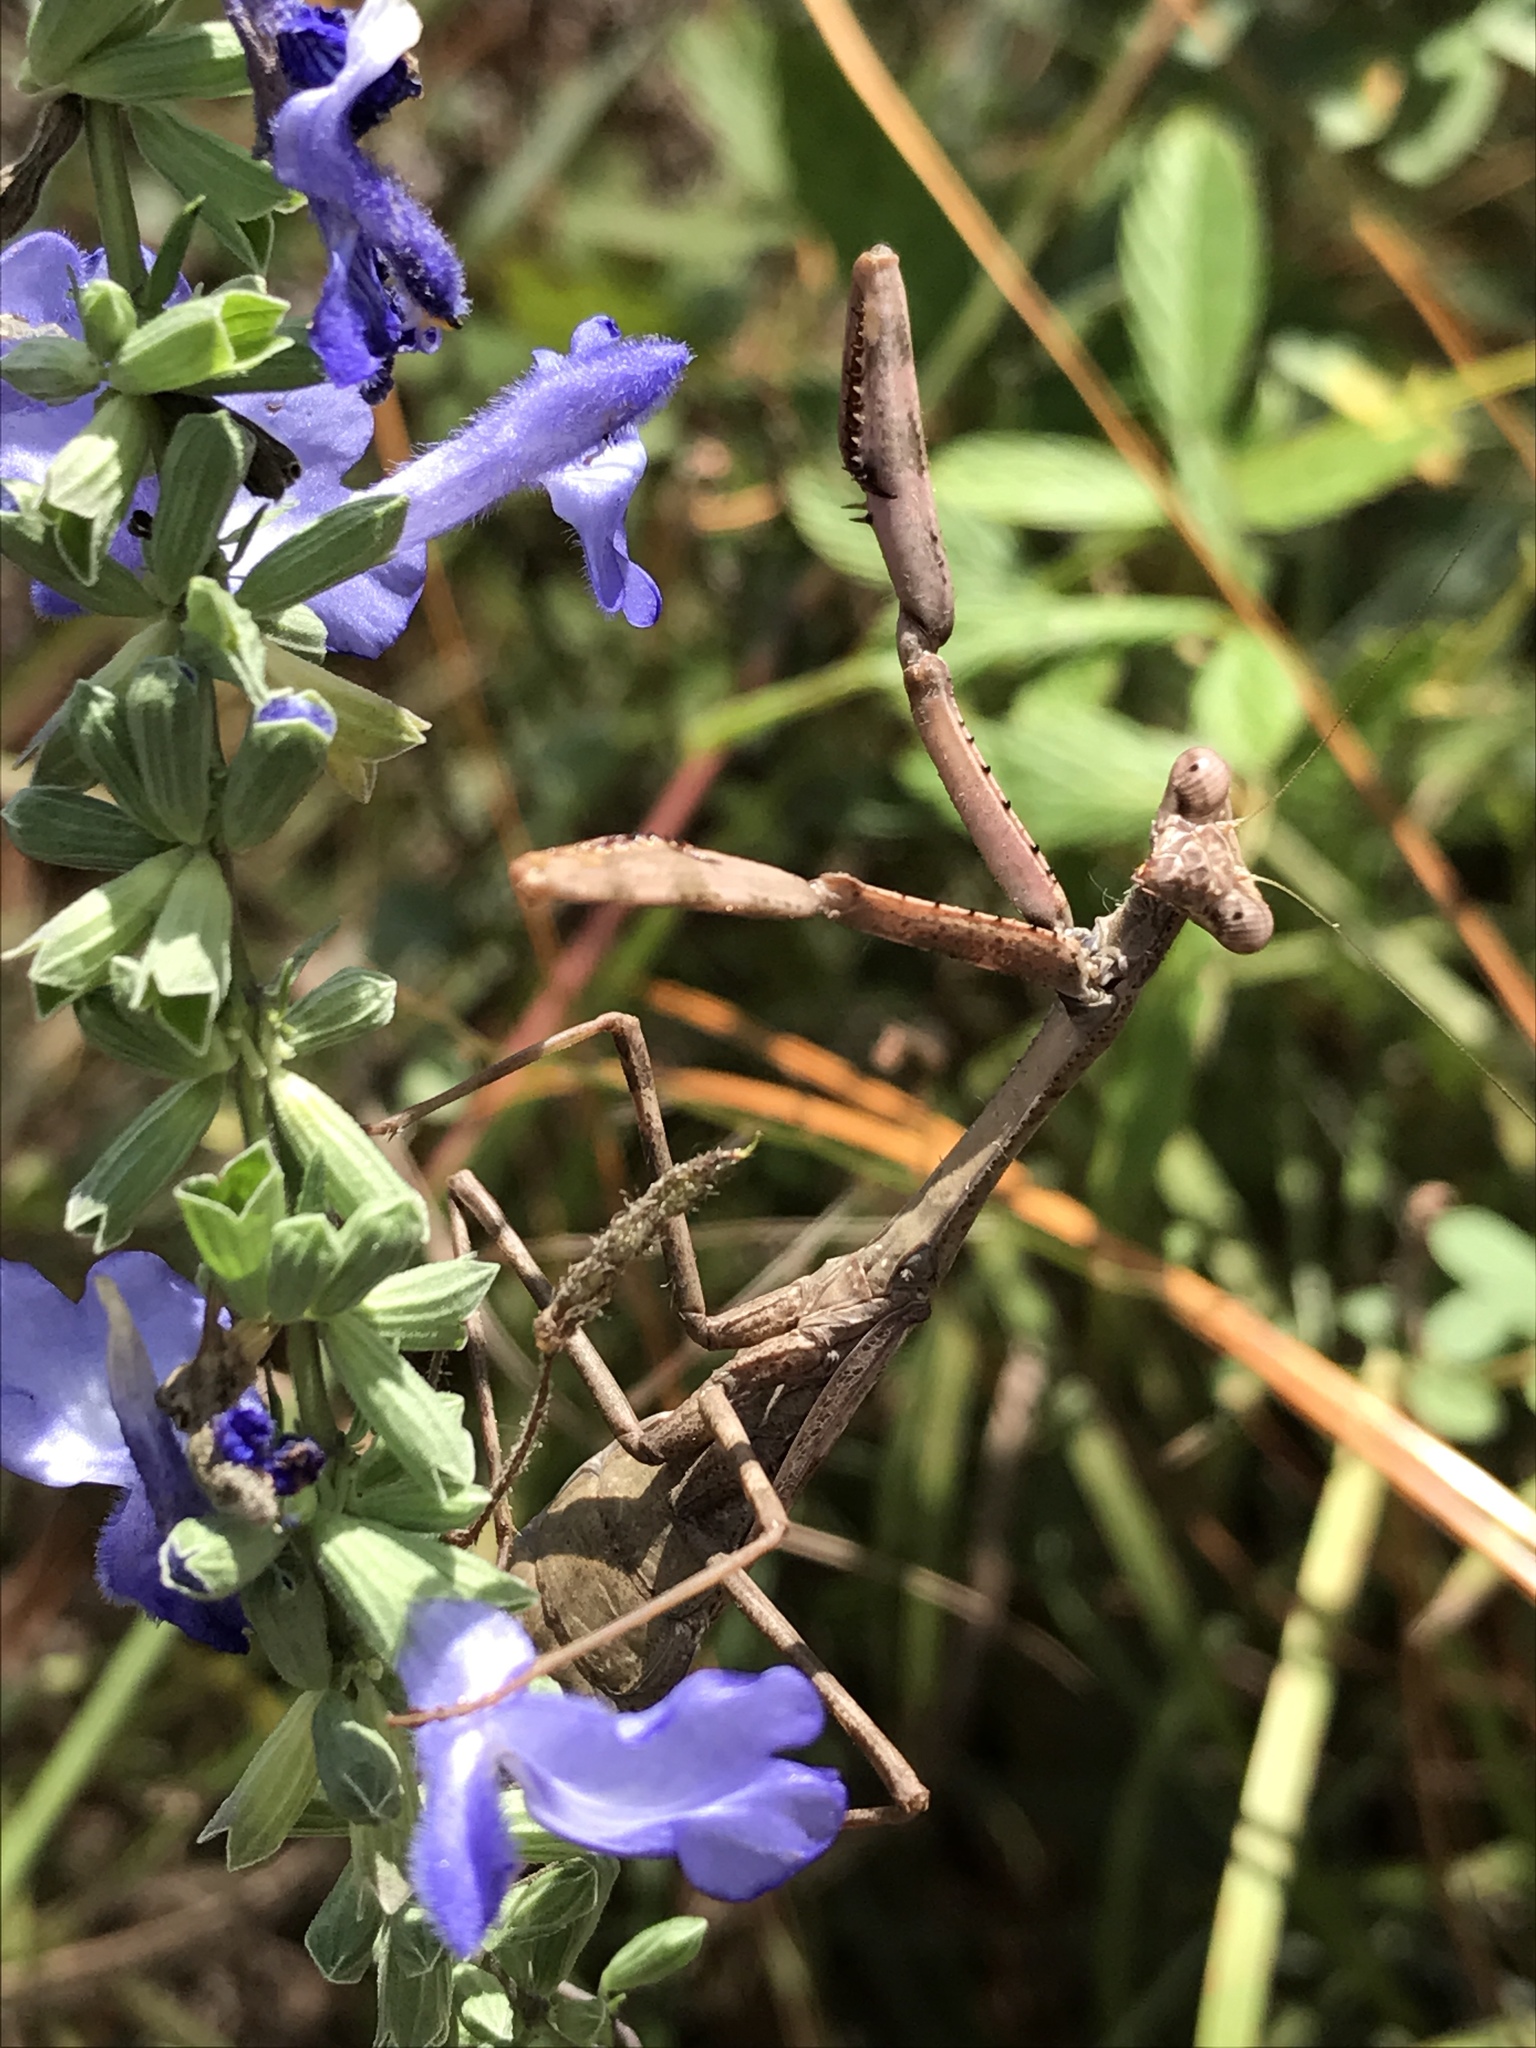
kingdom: Animalia
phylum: Arthropoda
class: Insecta
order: Mantodea
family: Mantidae
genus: Stagmomantis
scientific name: Stagmomantis carolina
